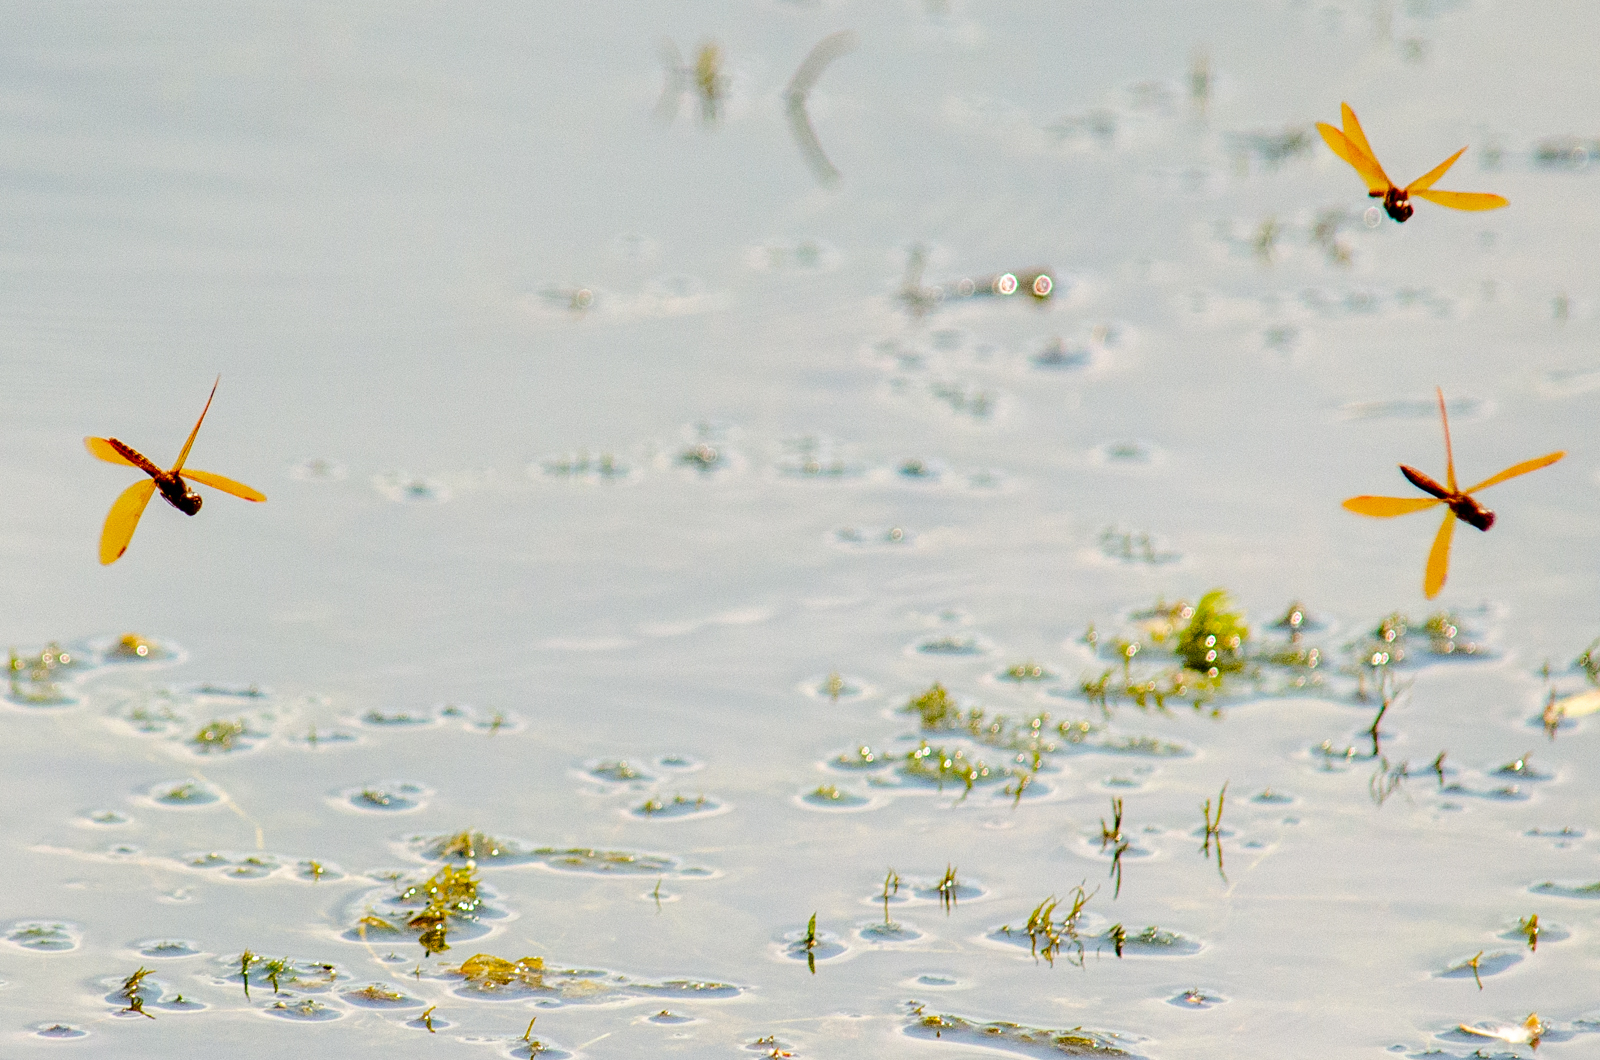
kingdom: Animalia
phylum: Arthropoda
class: Insecta
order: Odonata
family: Libellulidae
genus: Perithemis
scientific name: Perithemis tenera
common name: Eastern amberwing
